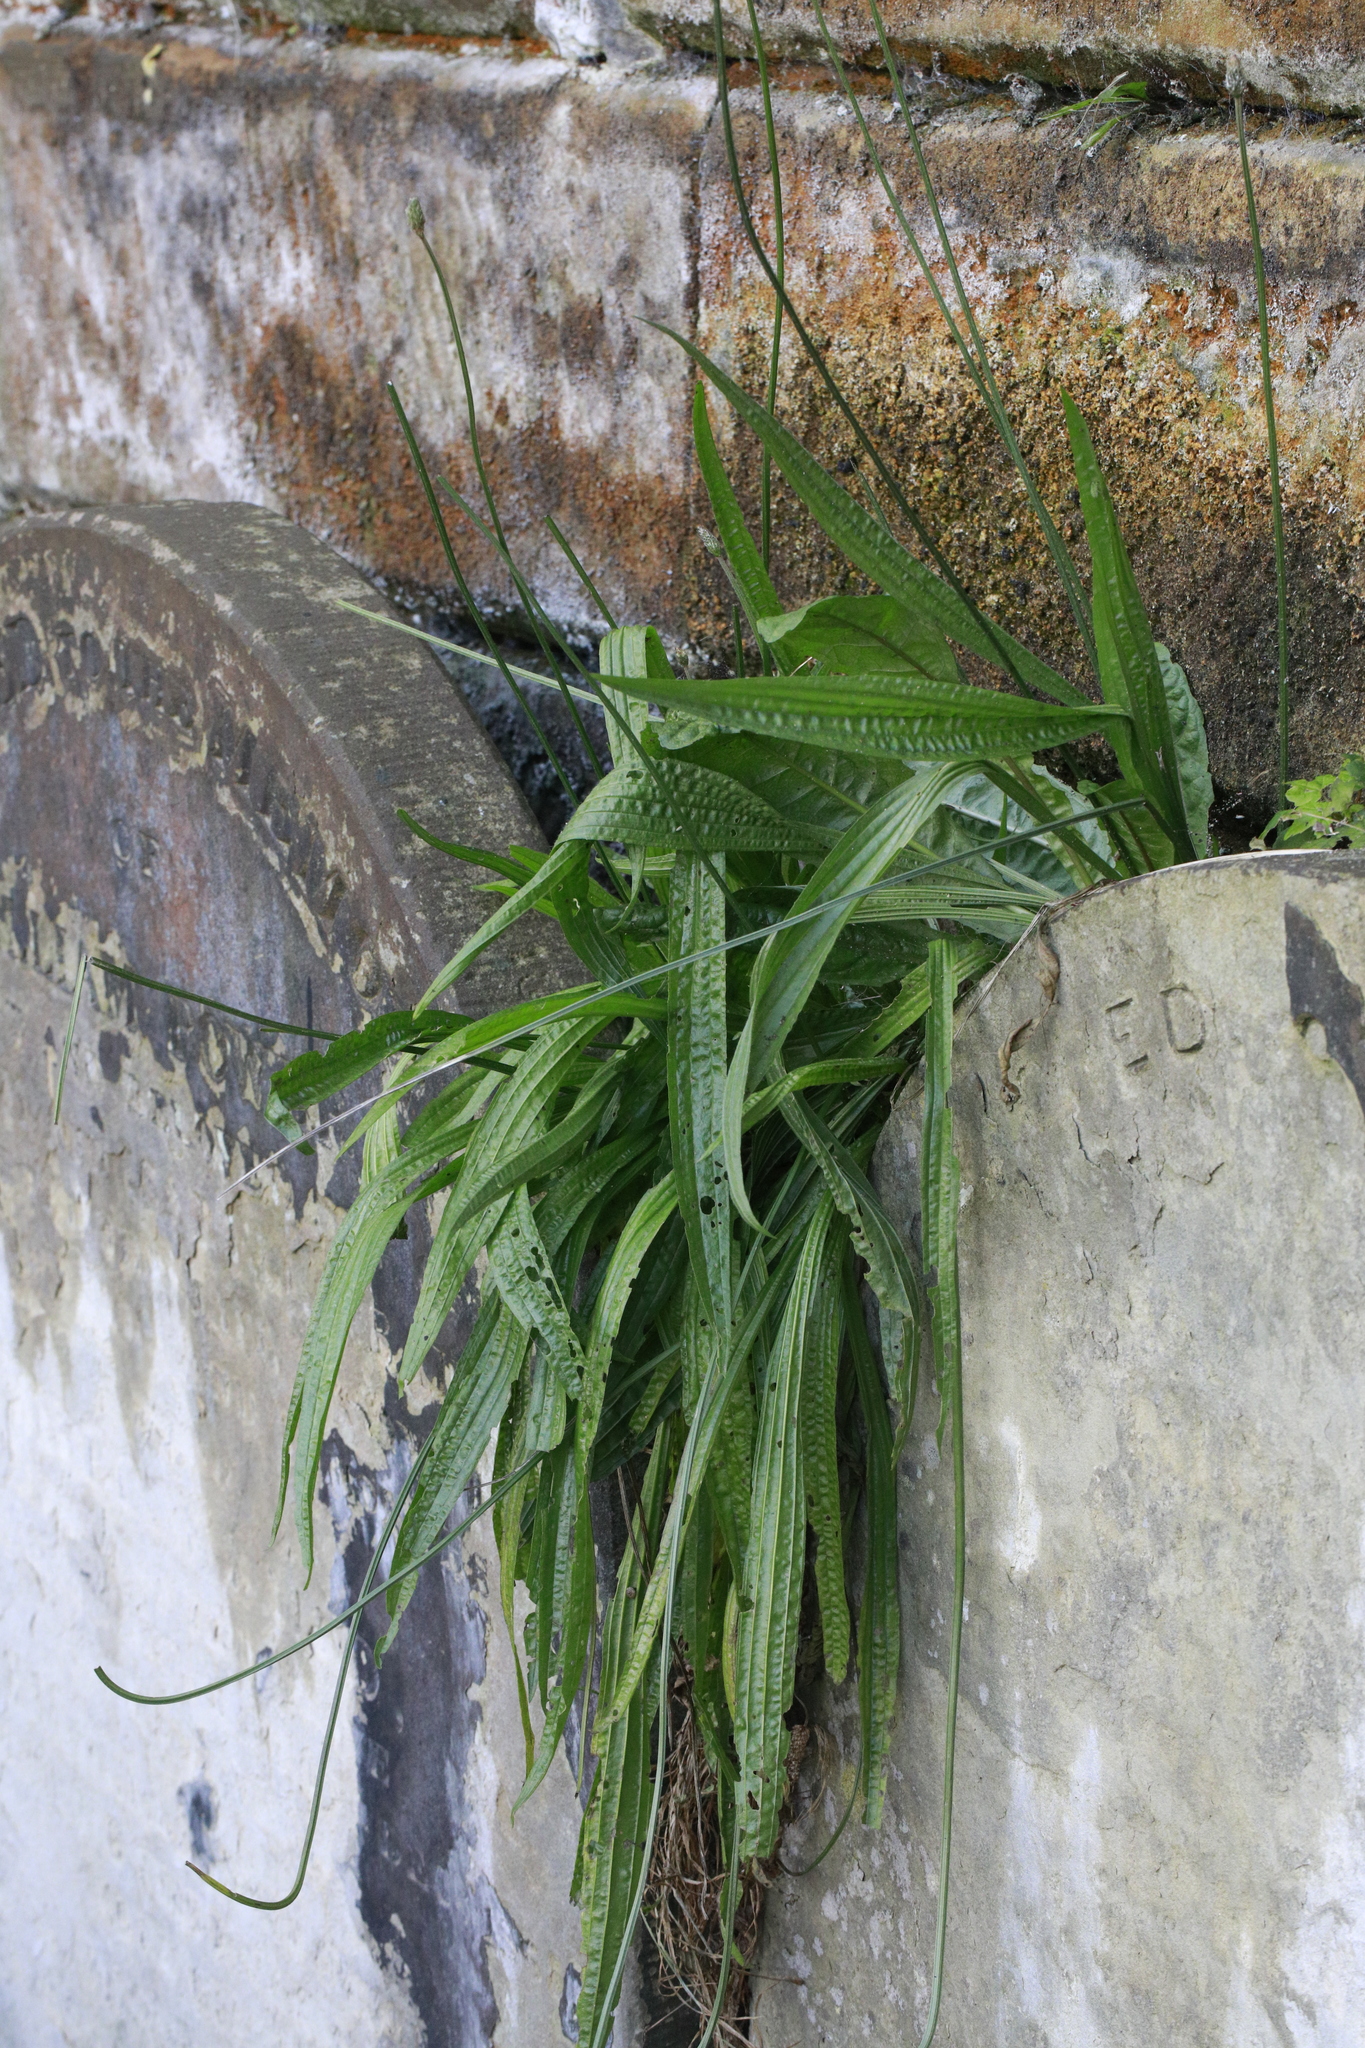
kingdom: Plantae
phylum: Tracheophyta
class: Magnoliopsida
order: Lamiales
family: Plantaginaceae
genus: Plantago
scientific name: Plantago lanceolata
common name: Ribwort plantain
